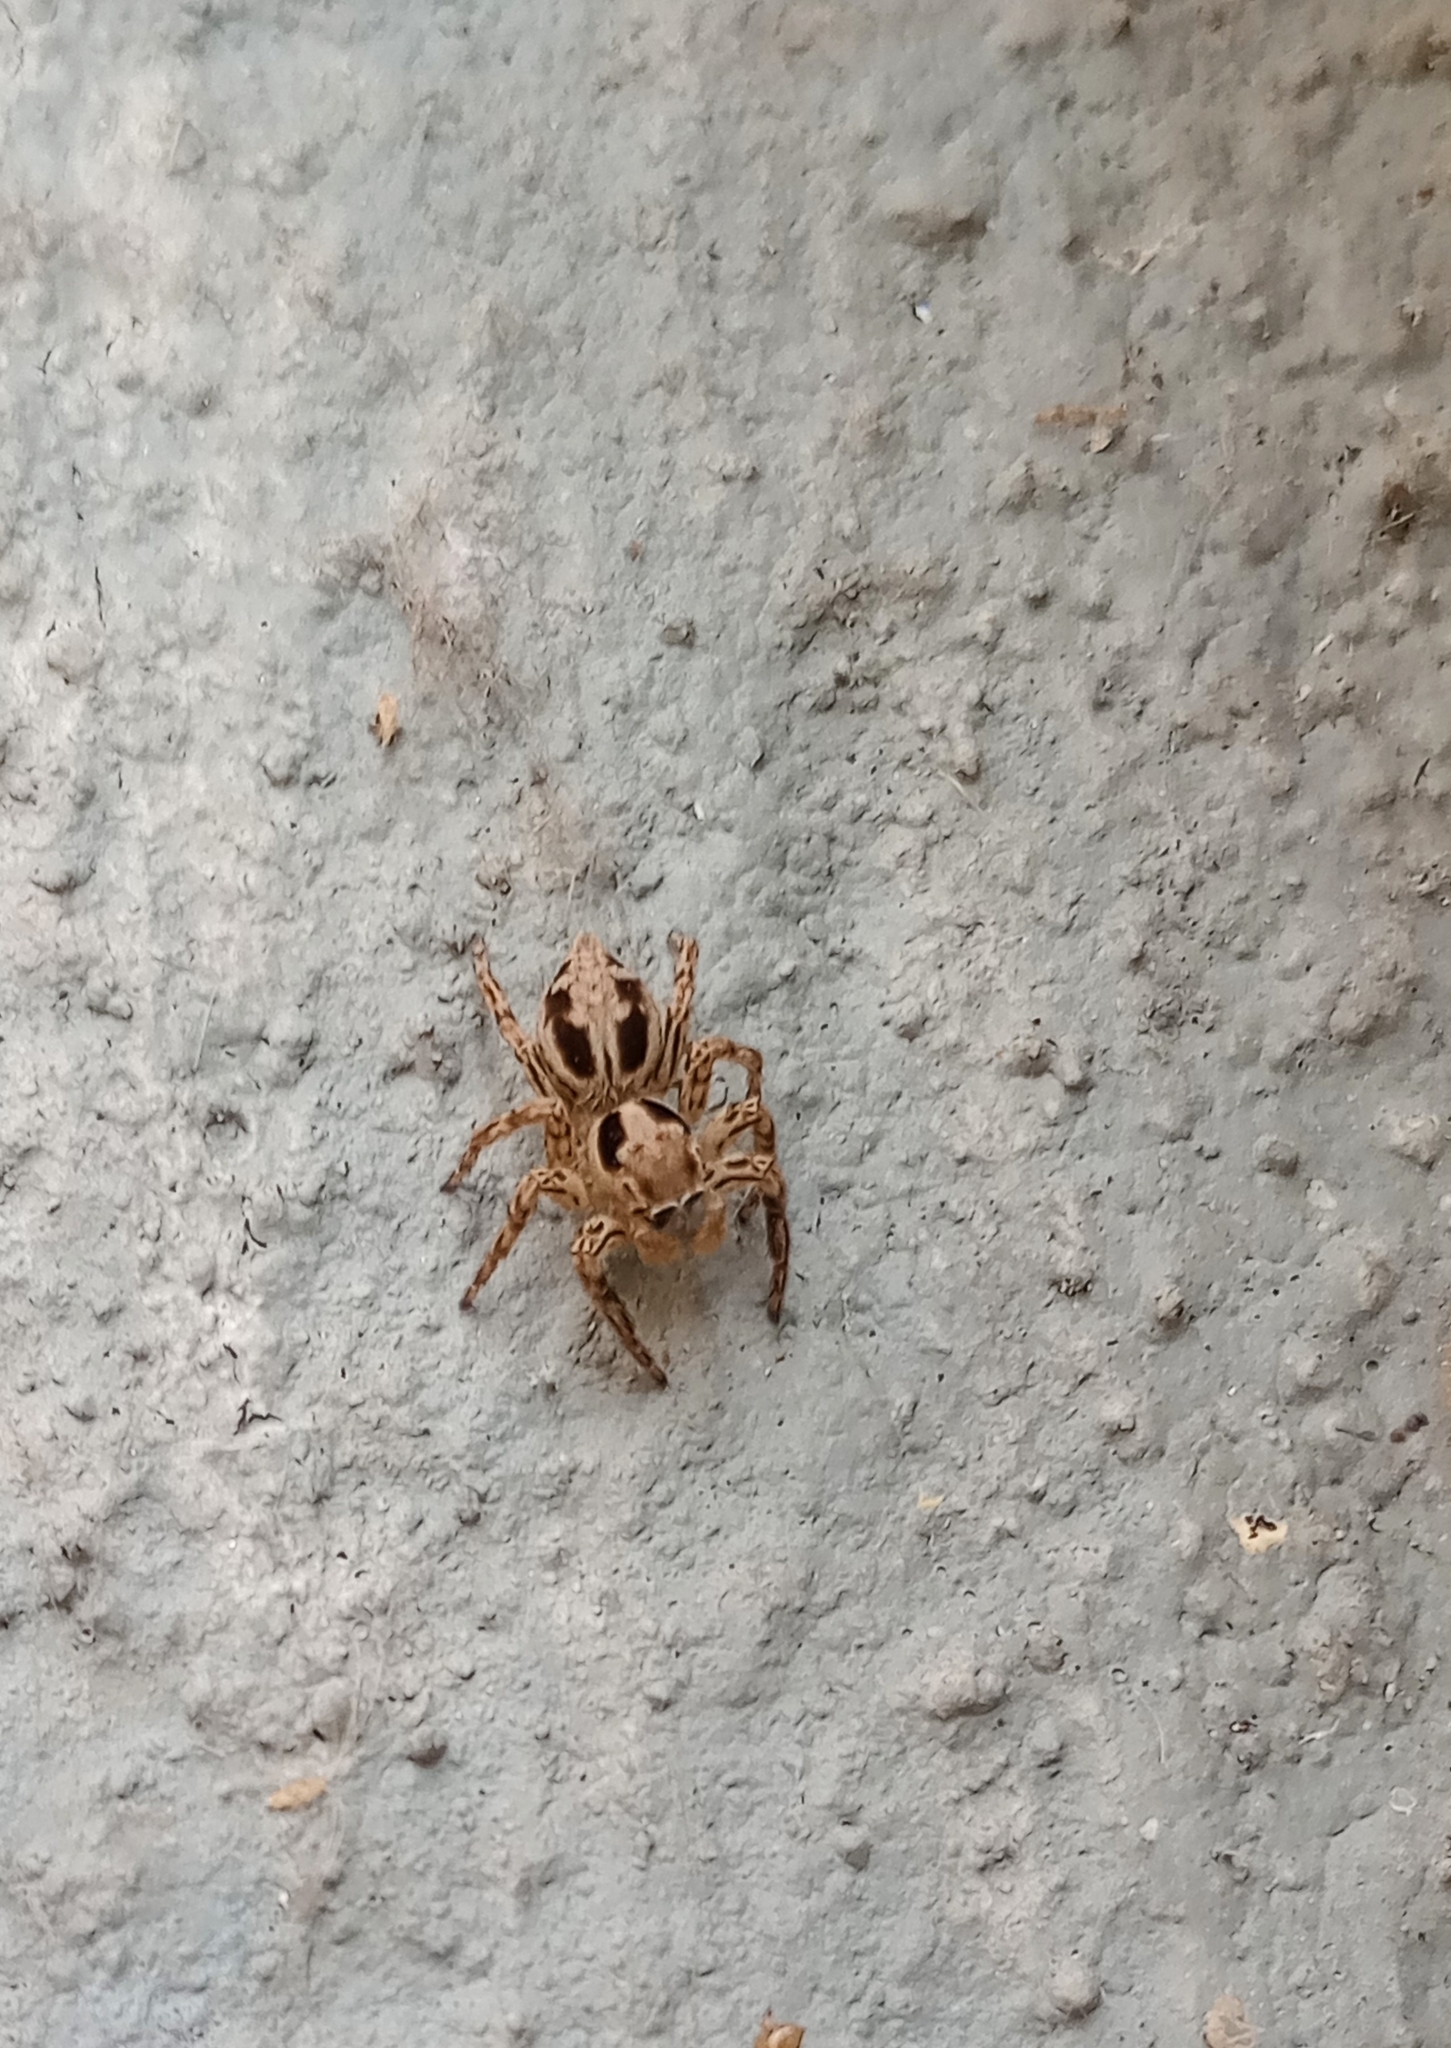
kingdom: Animalia
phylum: Arthropoda
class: Arachnida
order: Araneae
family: Salticidae
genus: Plexippus
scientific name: Plexippus petersi
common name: Jumping spider
